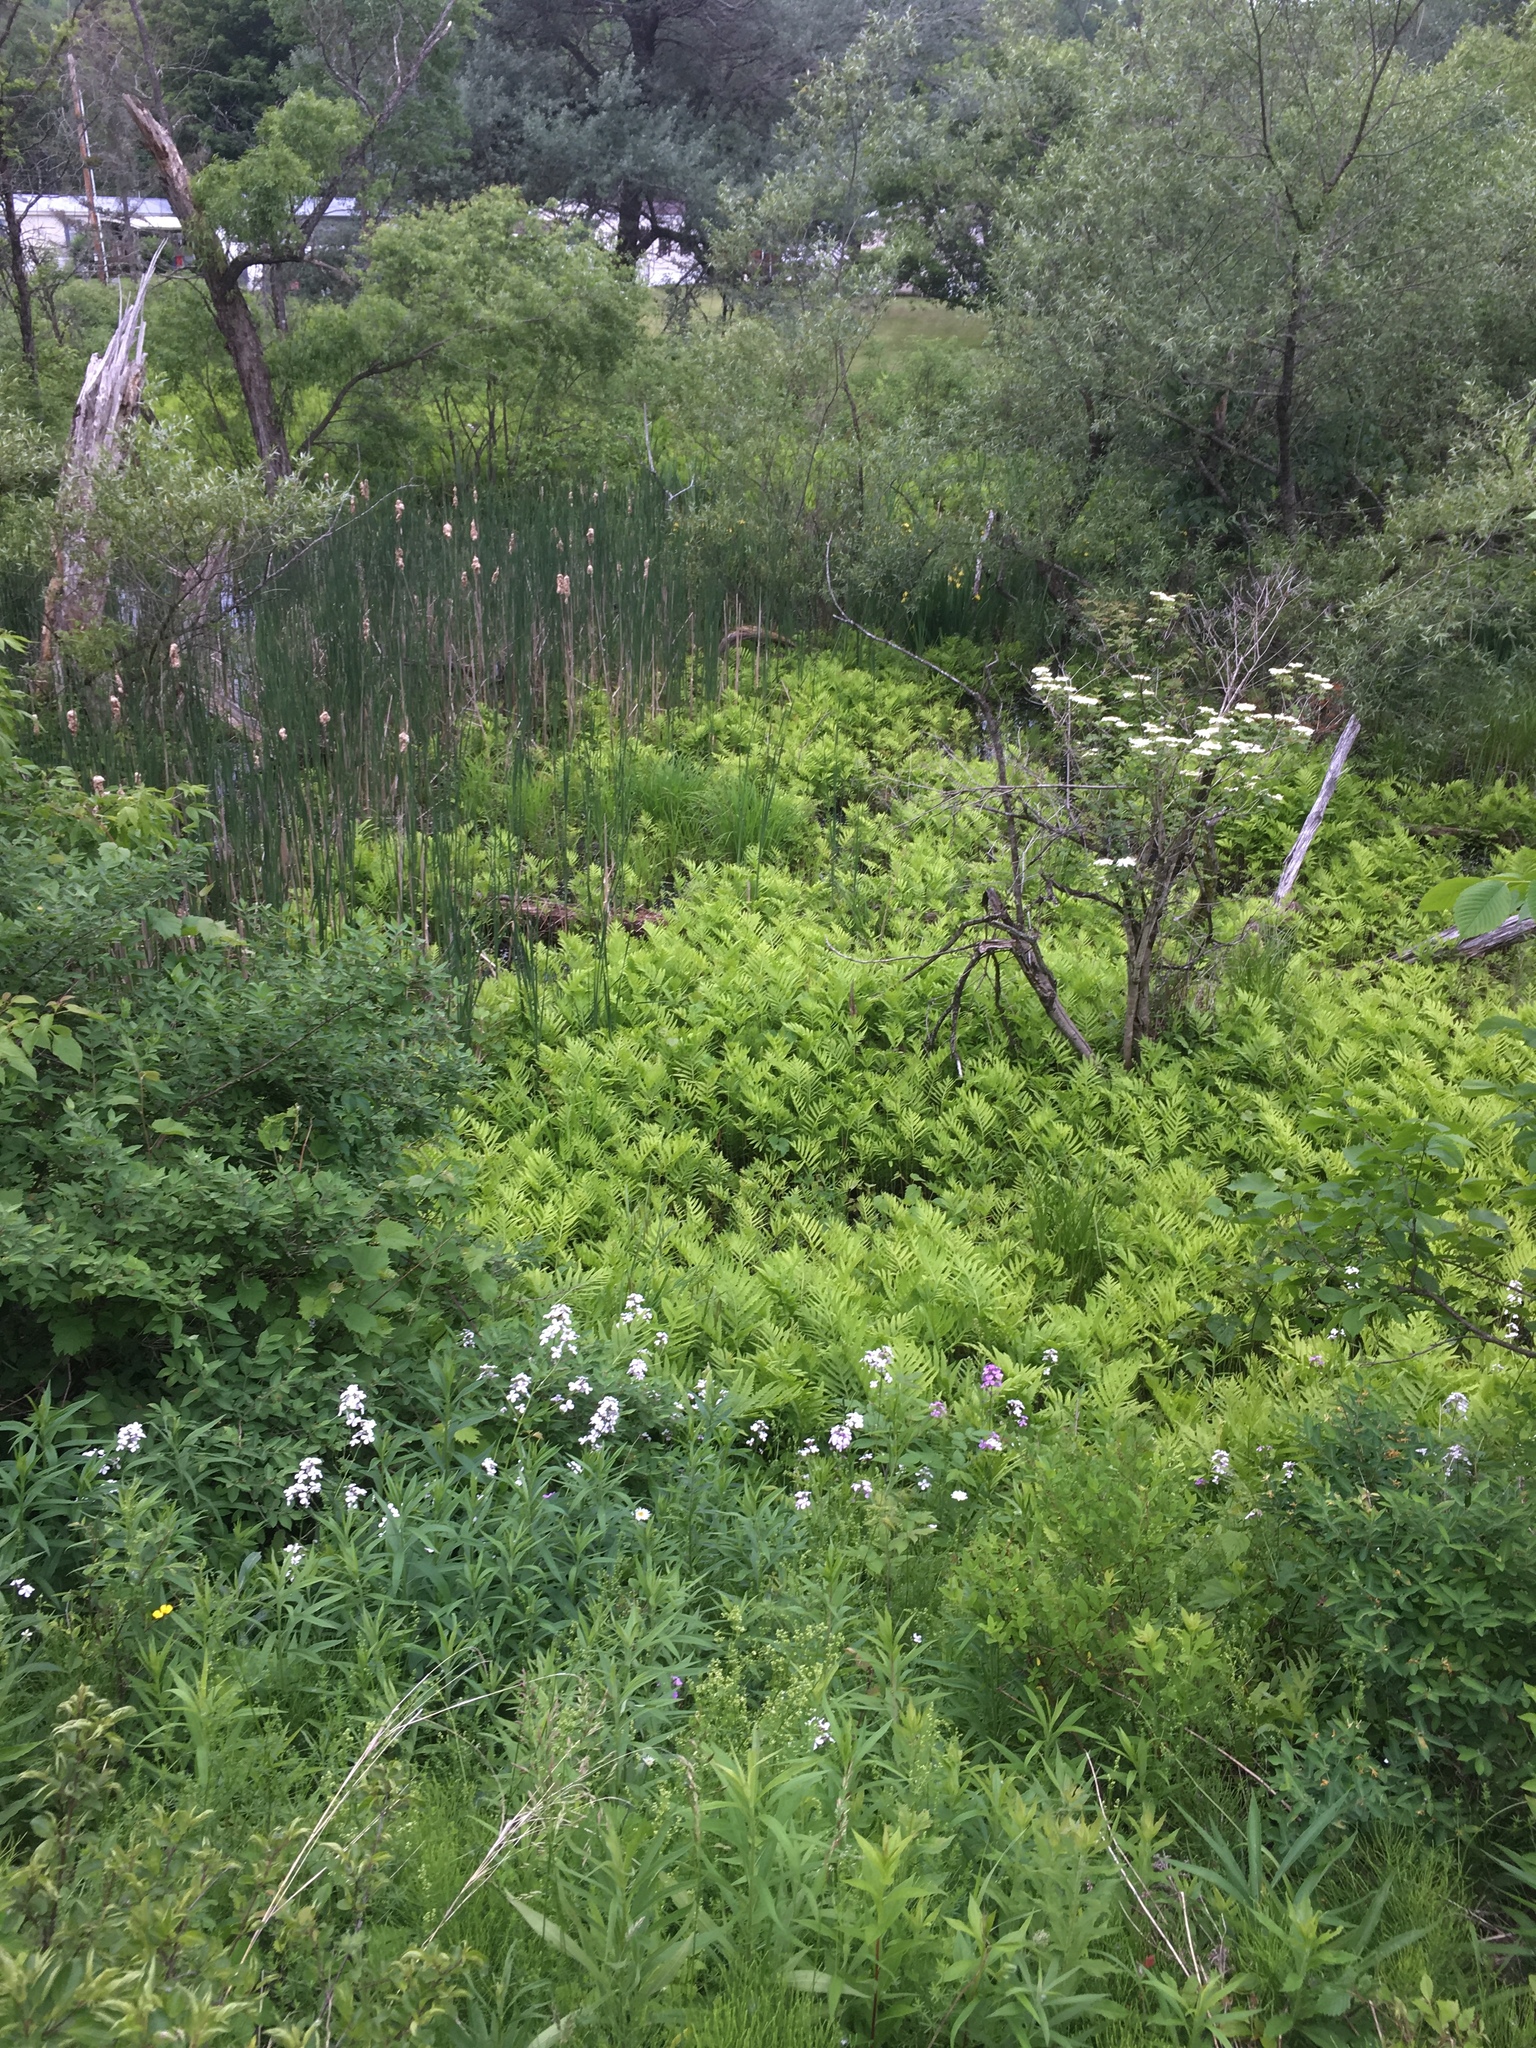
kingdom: Plantae
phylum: Tracheophyta
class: Liliopsida
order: Poales
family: Typhaceae
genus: Typha
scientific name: Typha
